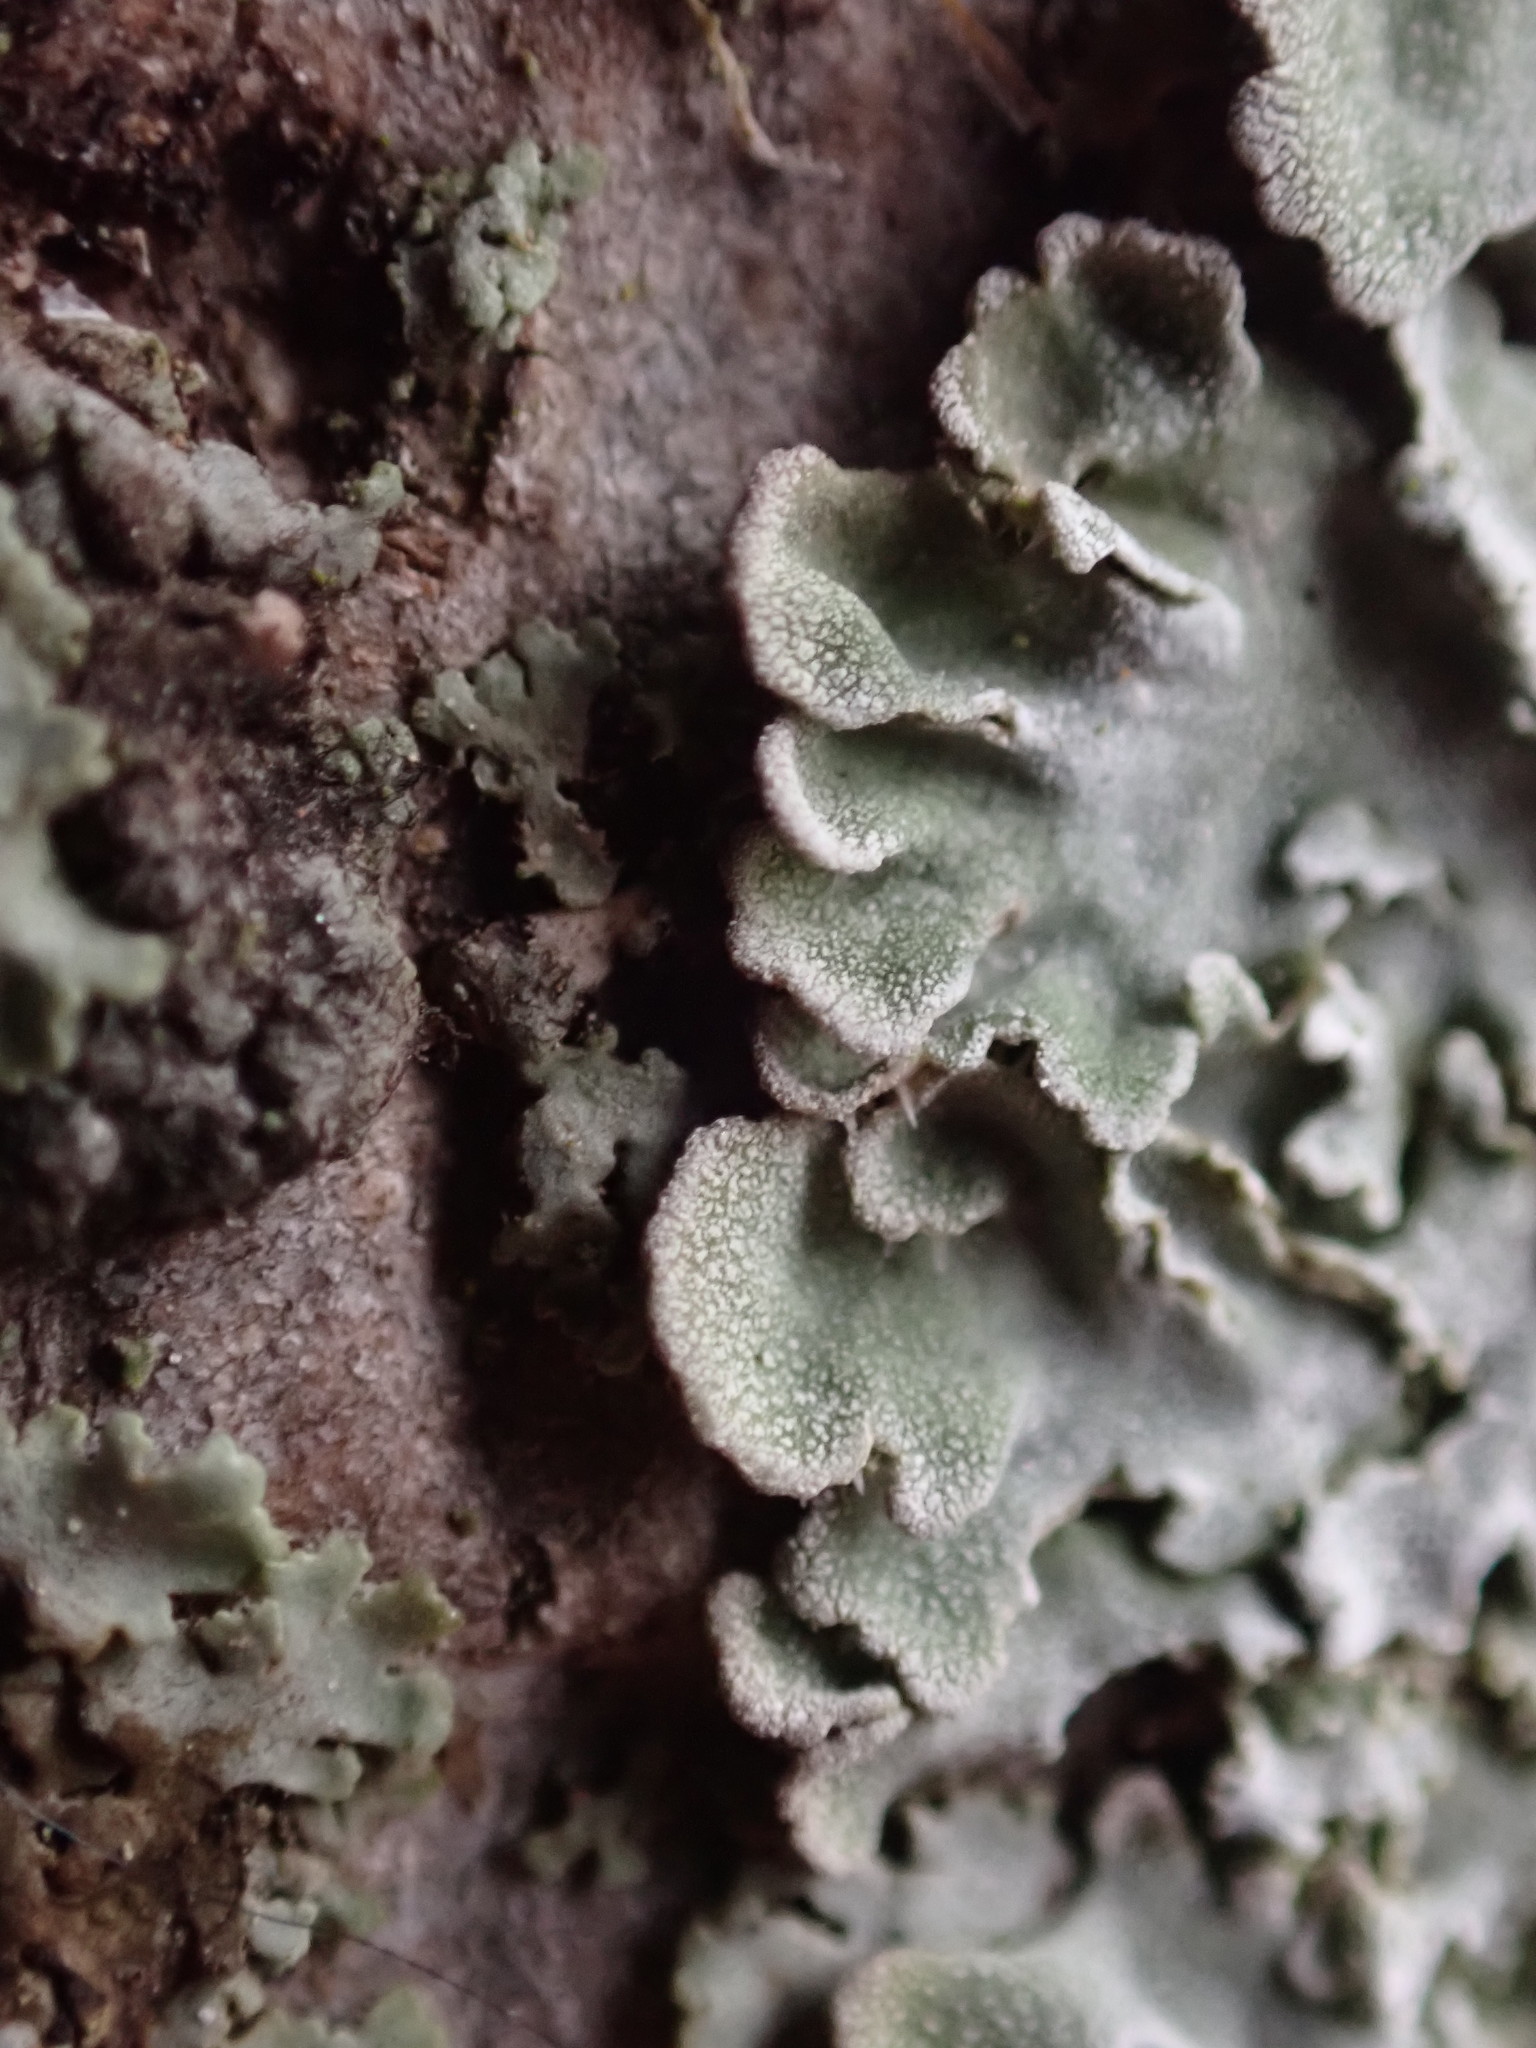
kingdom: Fungi
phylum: Ascomycota
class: Lecanoromycetes
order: Caliciales
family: Physciaceae
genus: Poeltonia
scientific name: Poeltonia grisea
